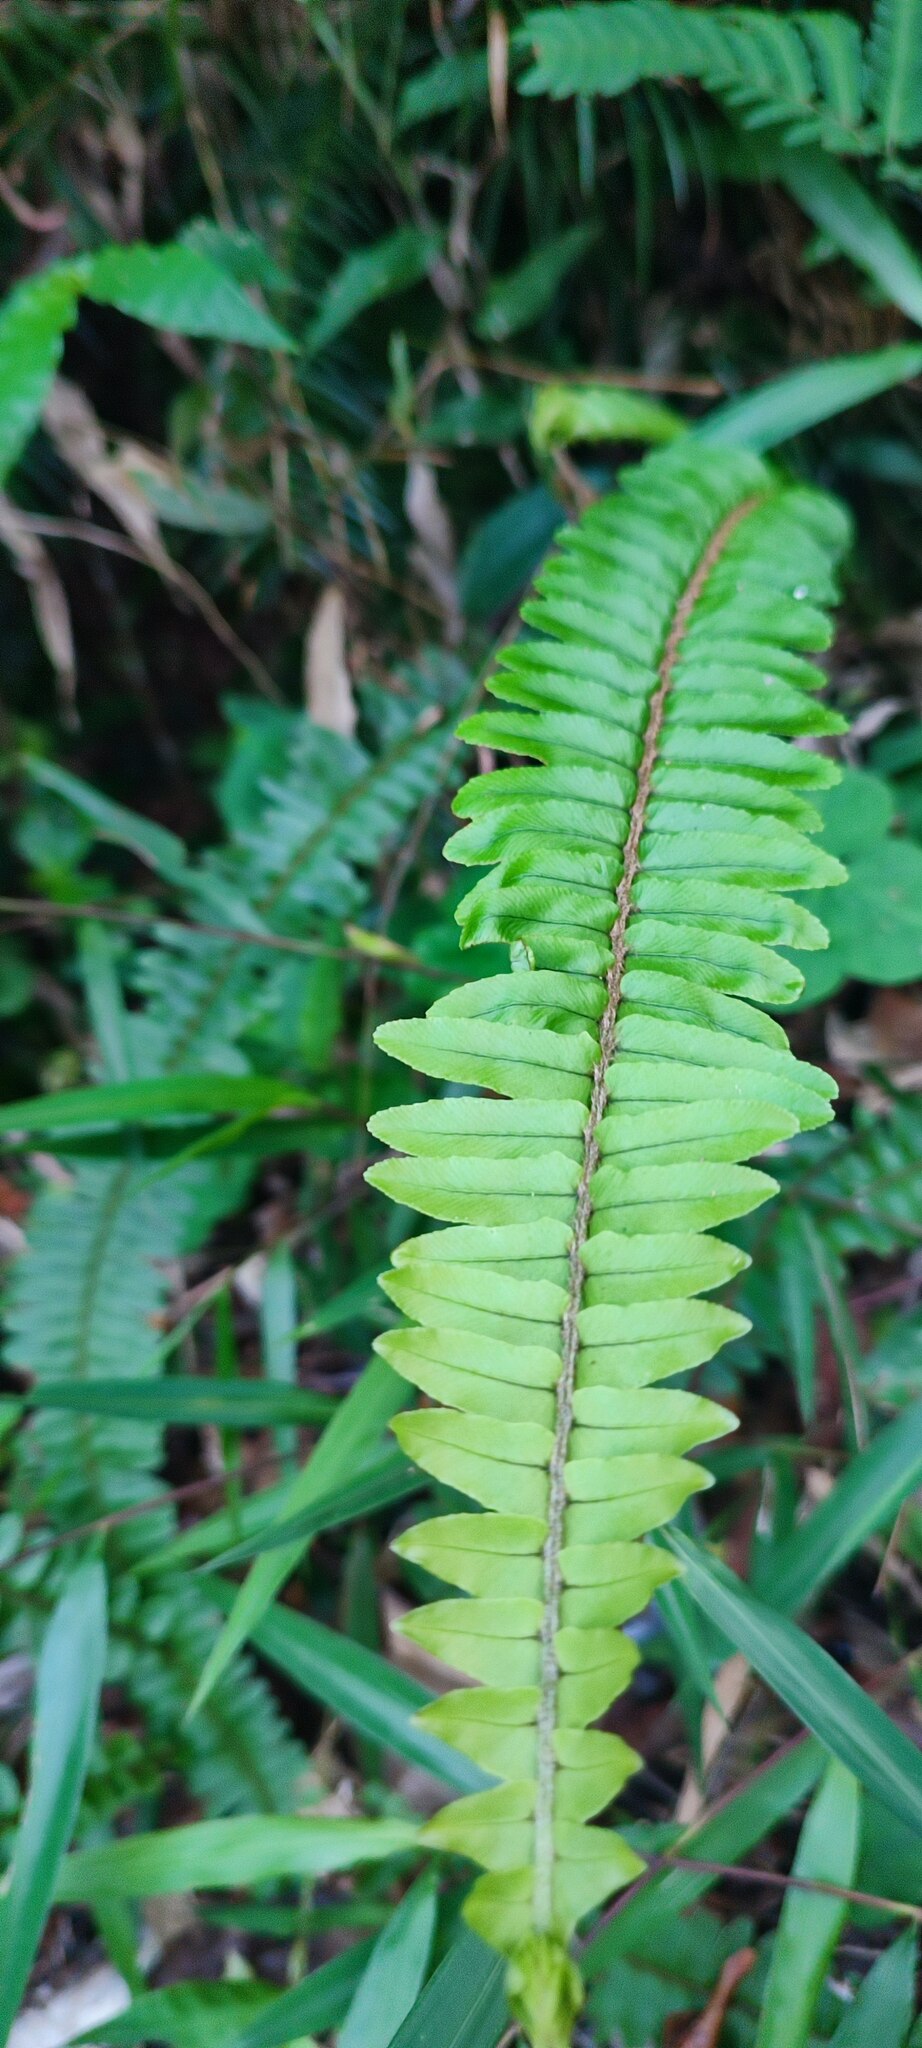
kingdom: Plantae
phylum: Tracheophyta
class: Polypodiopsida
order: Polypodiales
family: Nephrolepidaceae
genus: Nephrolepis
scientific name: Nephrolepis cordifolia
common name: Narrow swordfern
